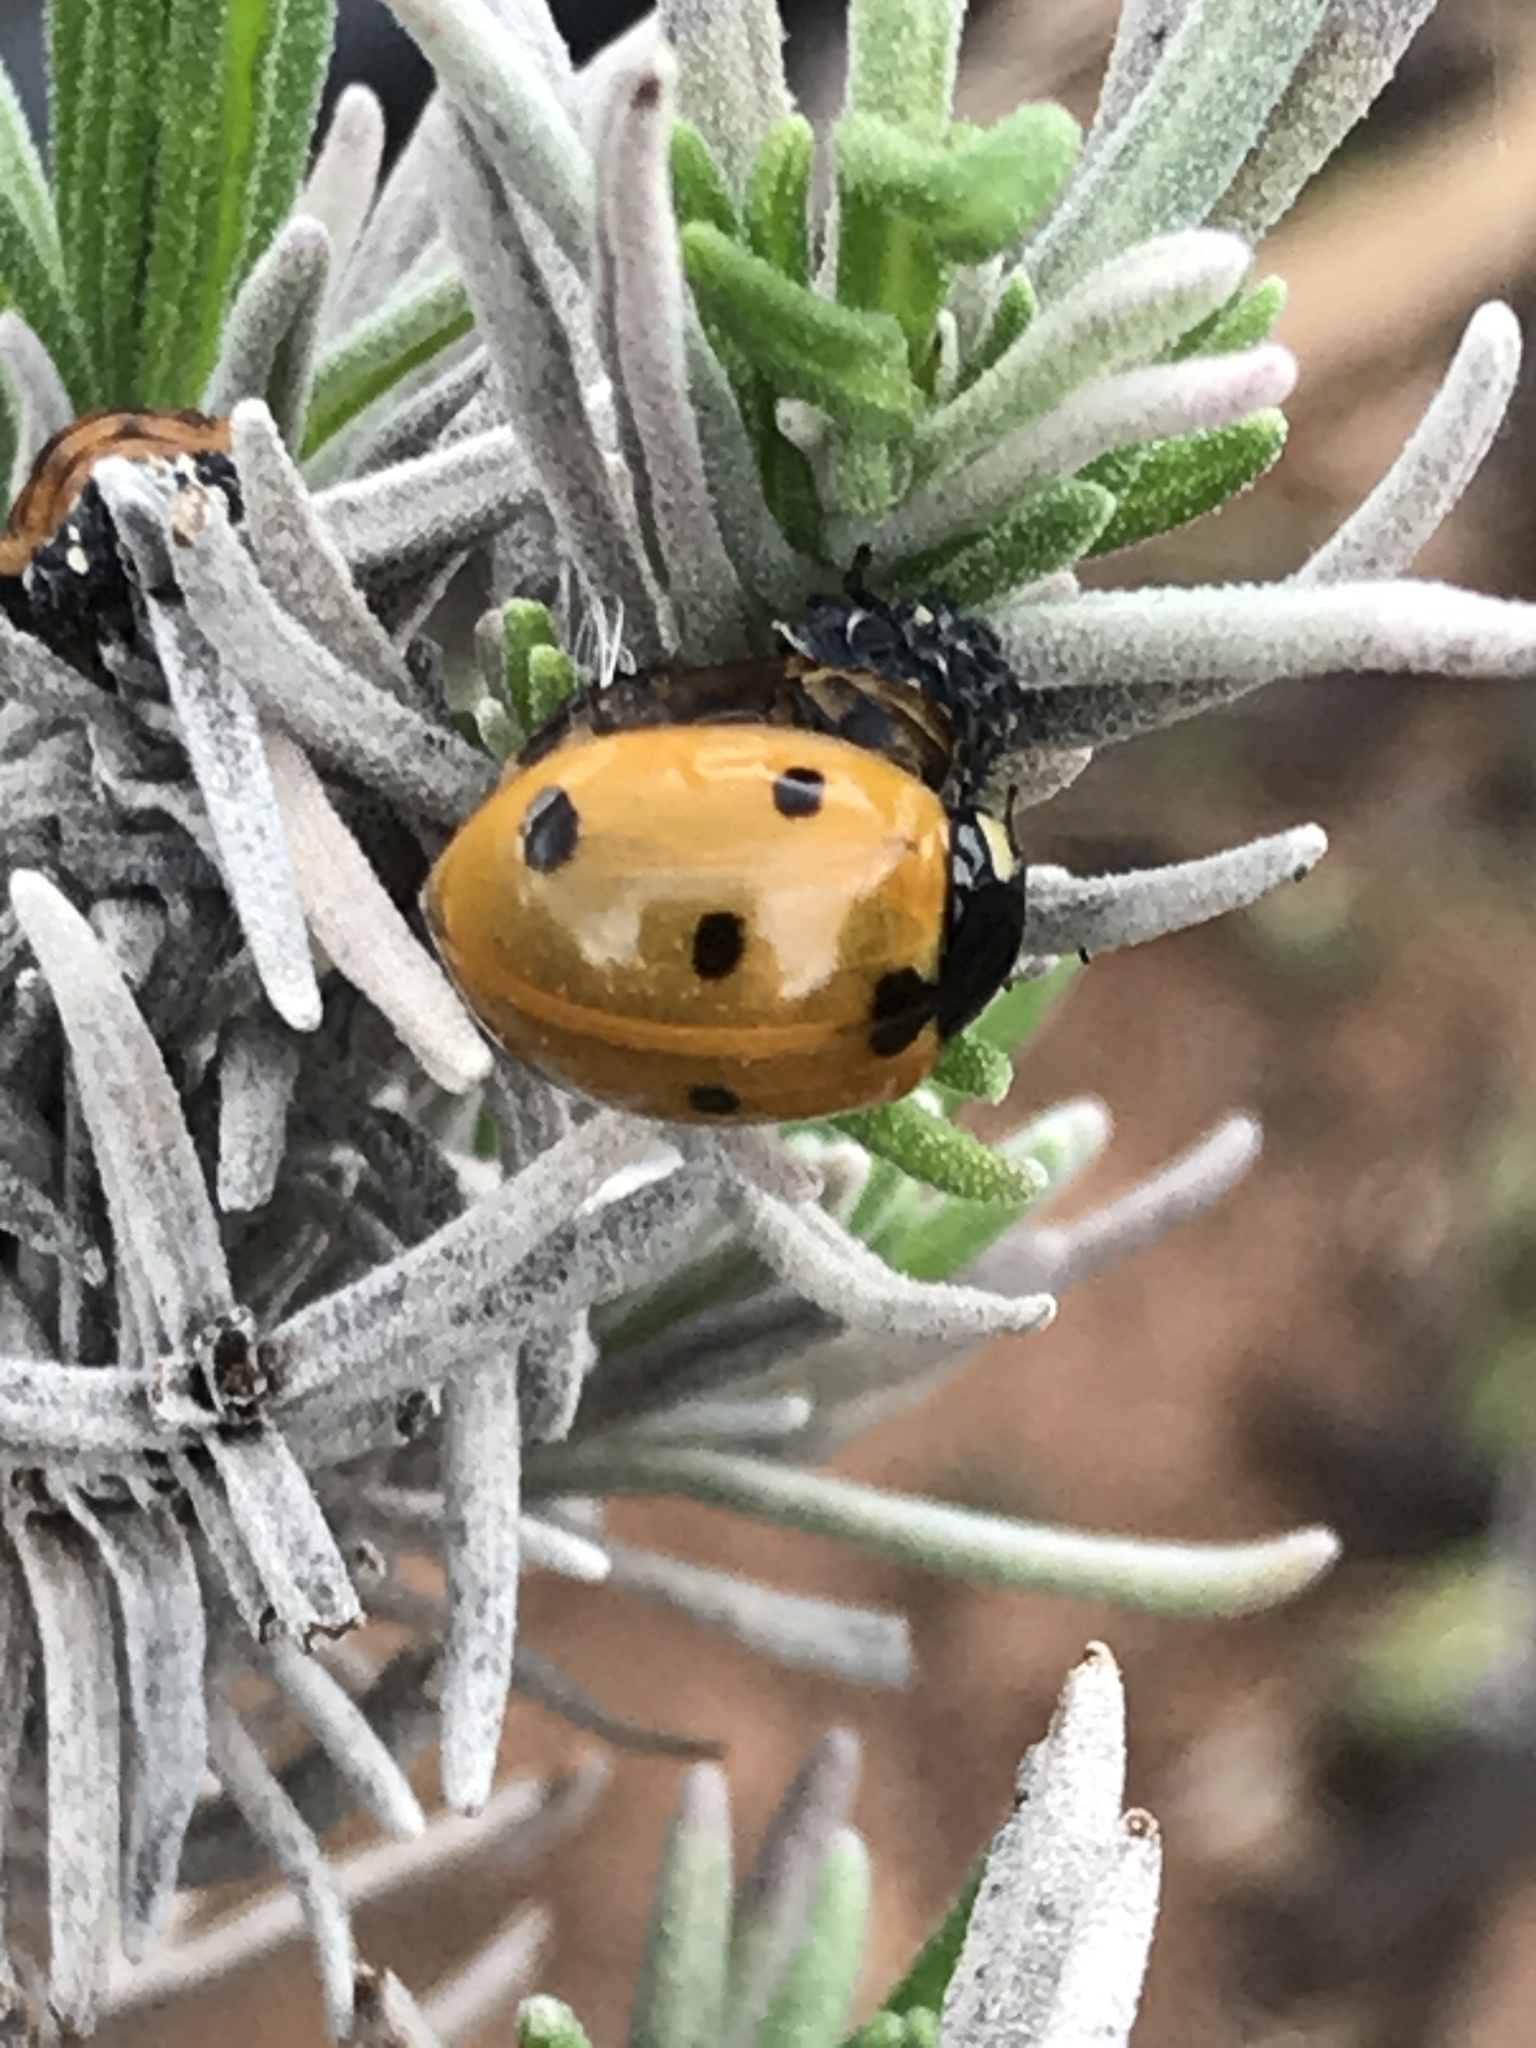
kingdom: Animalia
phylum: Arthropoda
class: Insecta
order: Coleoptera
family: Coccinellidae
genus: Coccinella
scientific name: Coccinella septempunctata
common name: Sevenspotted lady beetle
